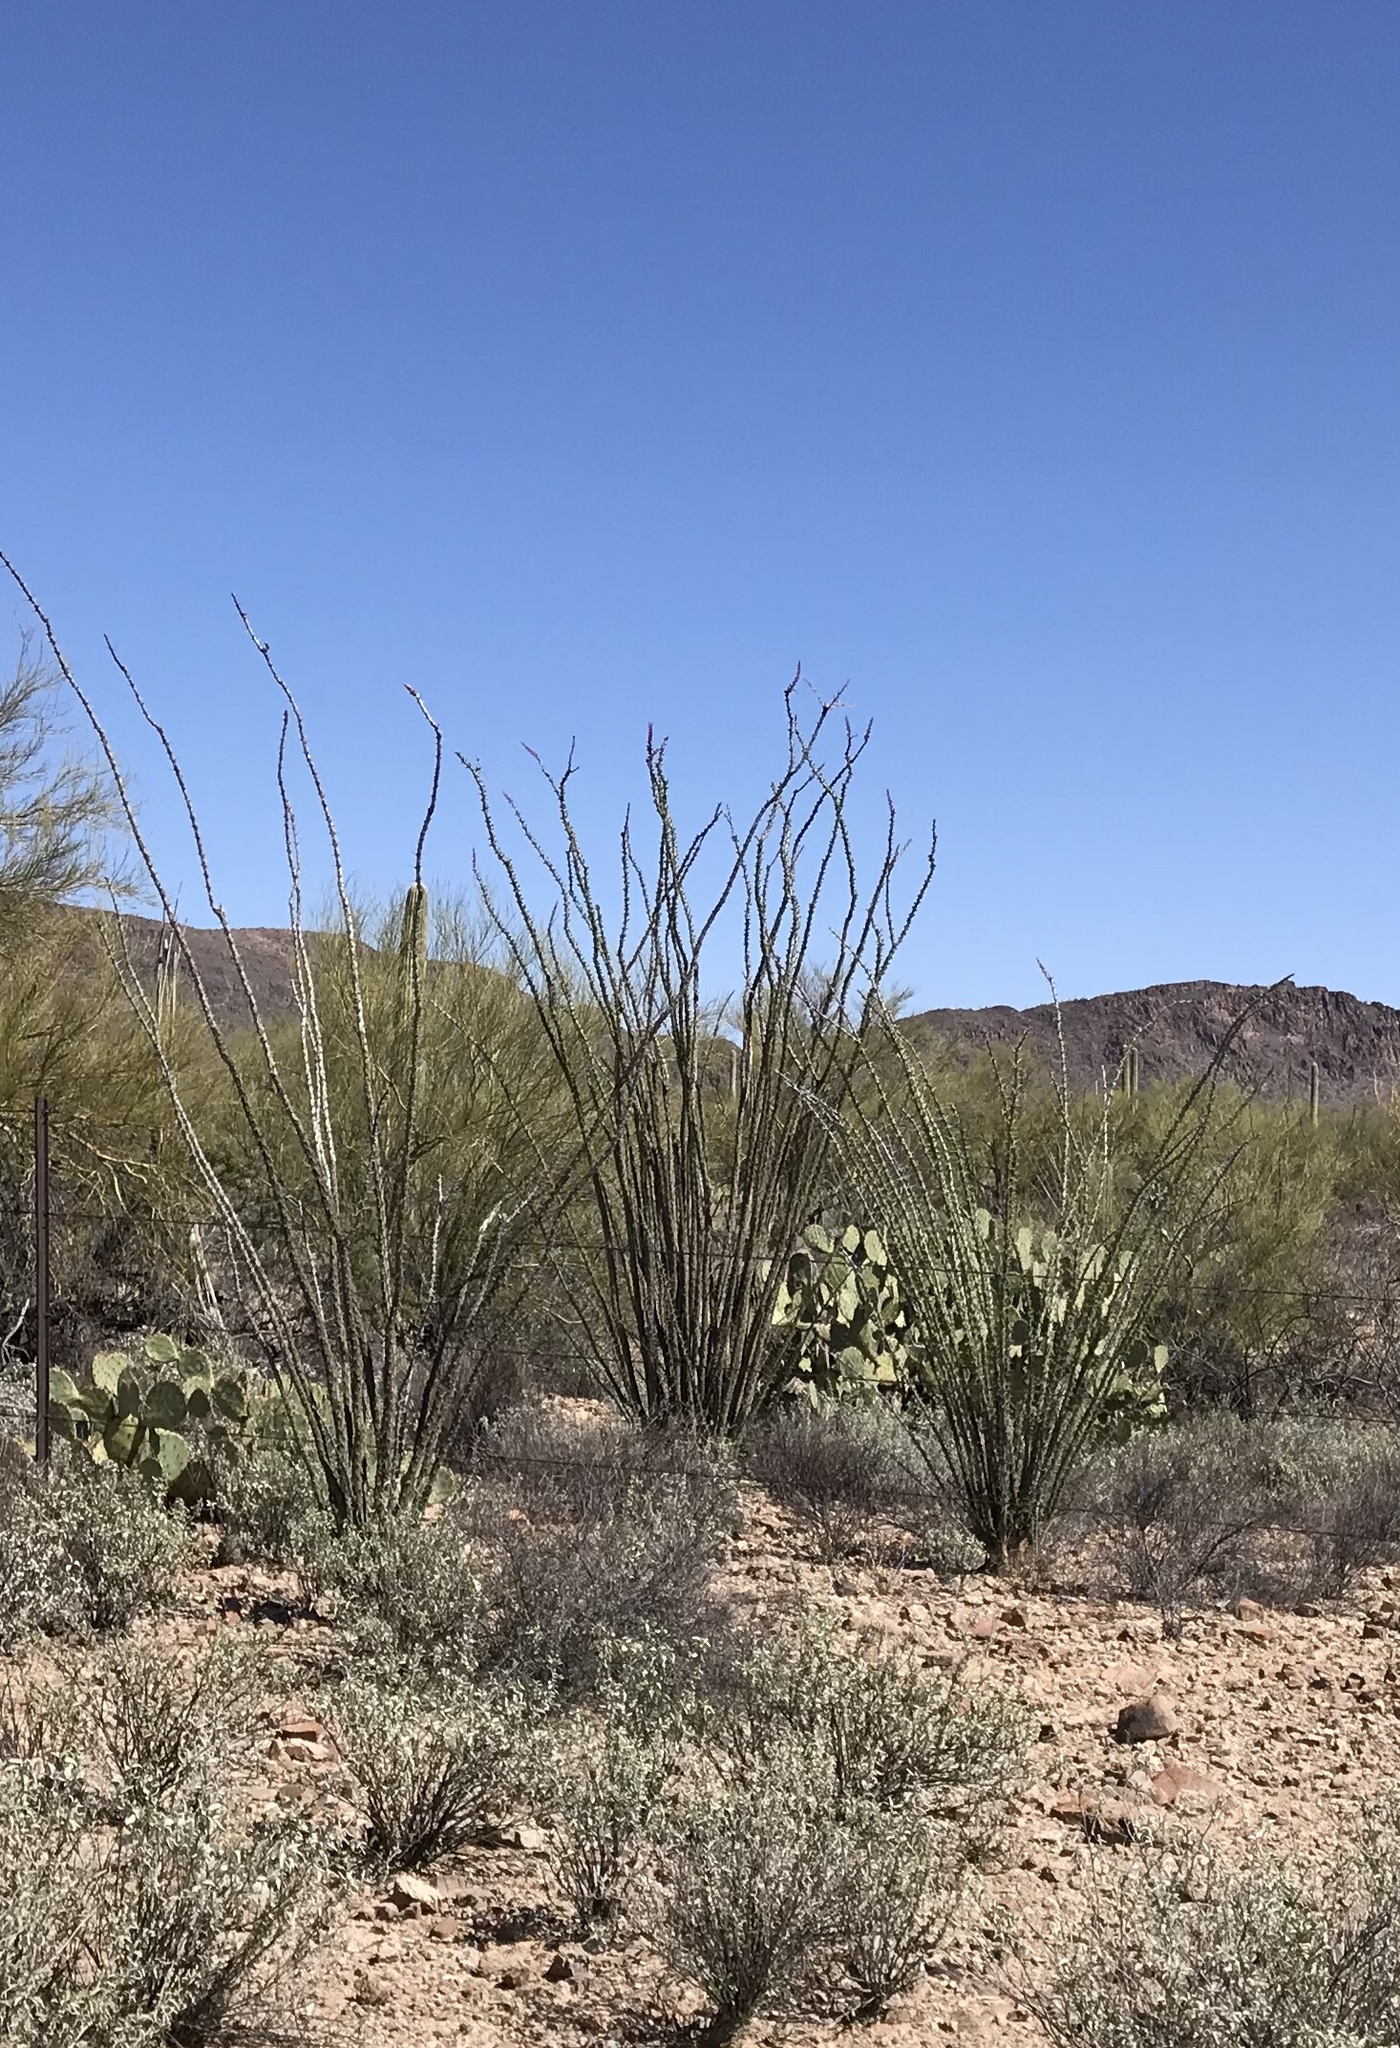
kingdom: Plantae
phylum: Tracheophyta
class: Magnoliopsida
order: Ericales
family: Fouquieriaceae
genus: Fouquieria
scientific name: Fouquieria splendens
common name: Vine-cactus
